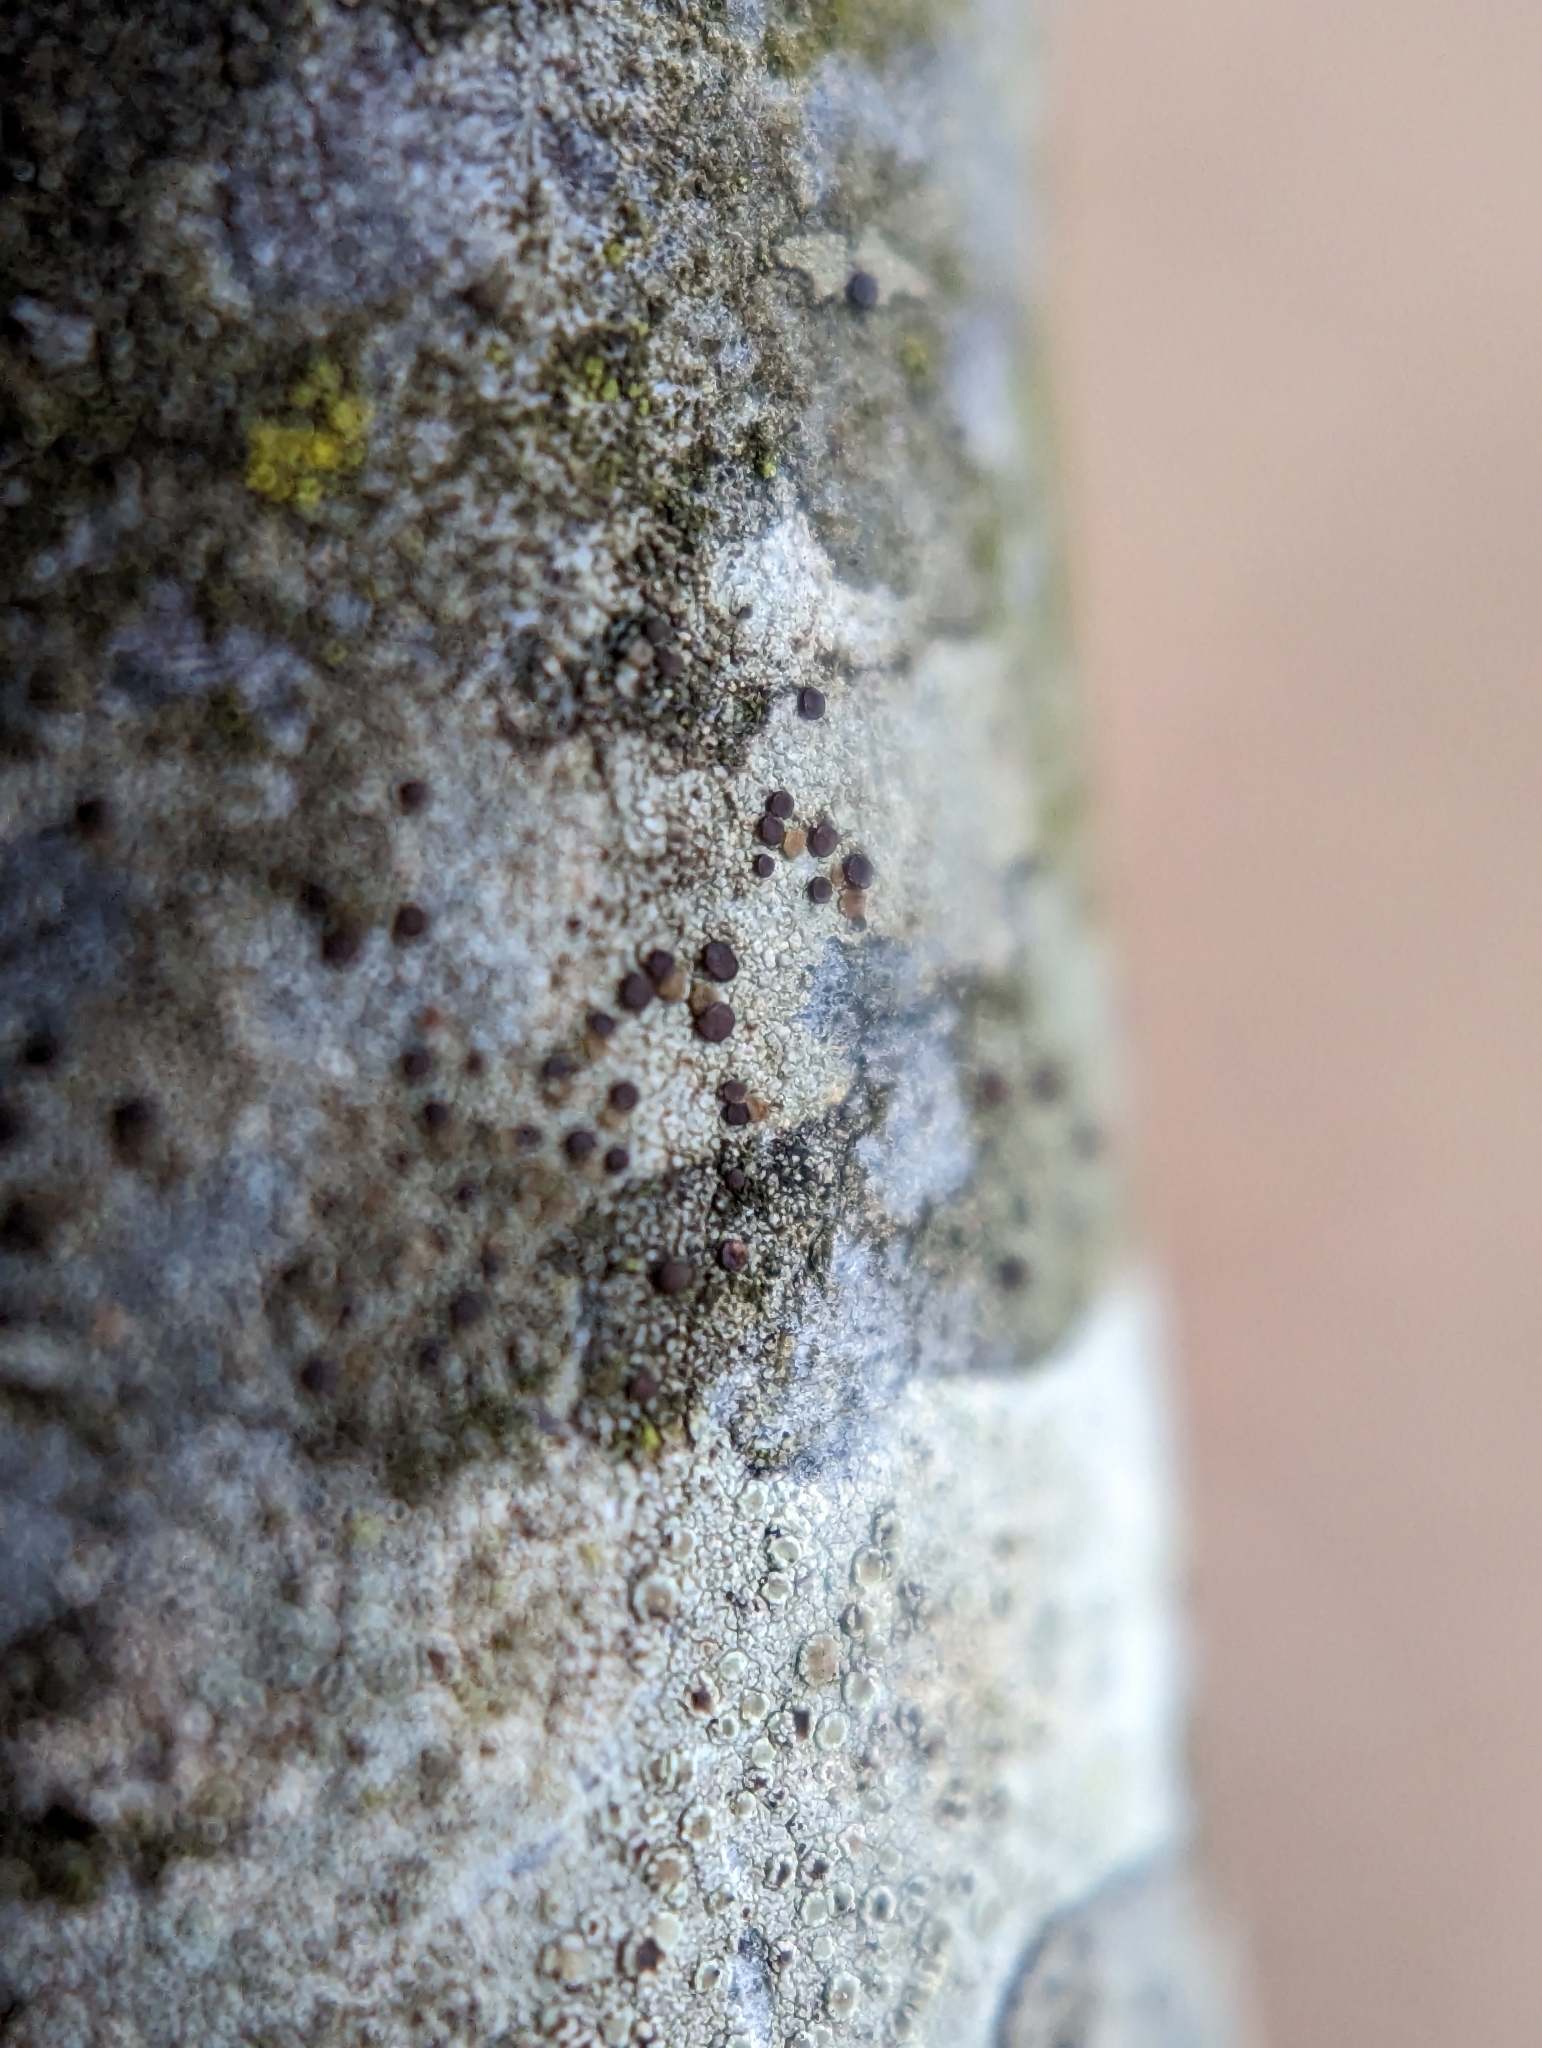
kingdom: Fungi
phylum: Ascomycota
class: Lecanoromycetes
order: Lecanorales
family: Lecanoraceae
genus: Traponora
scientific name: Traponora varians
